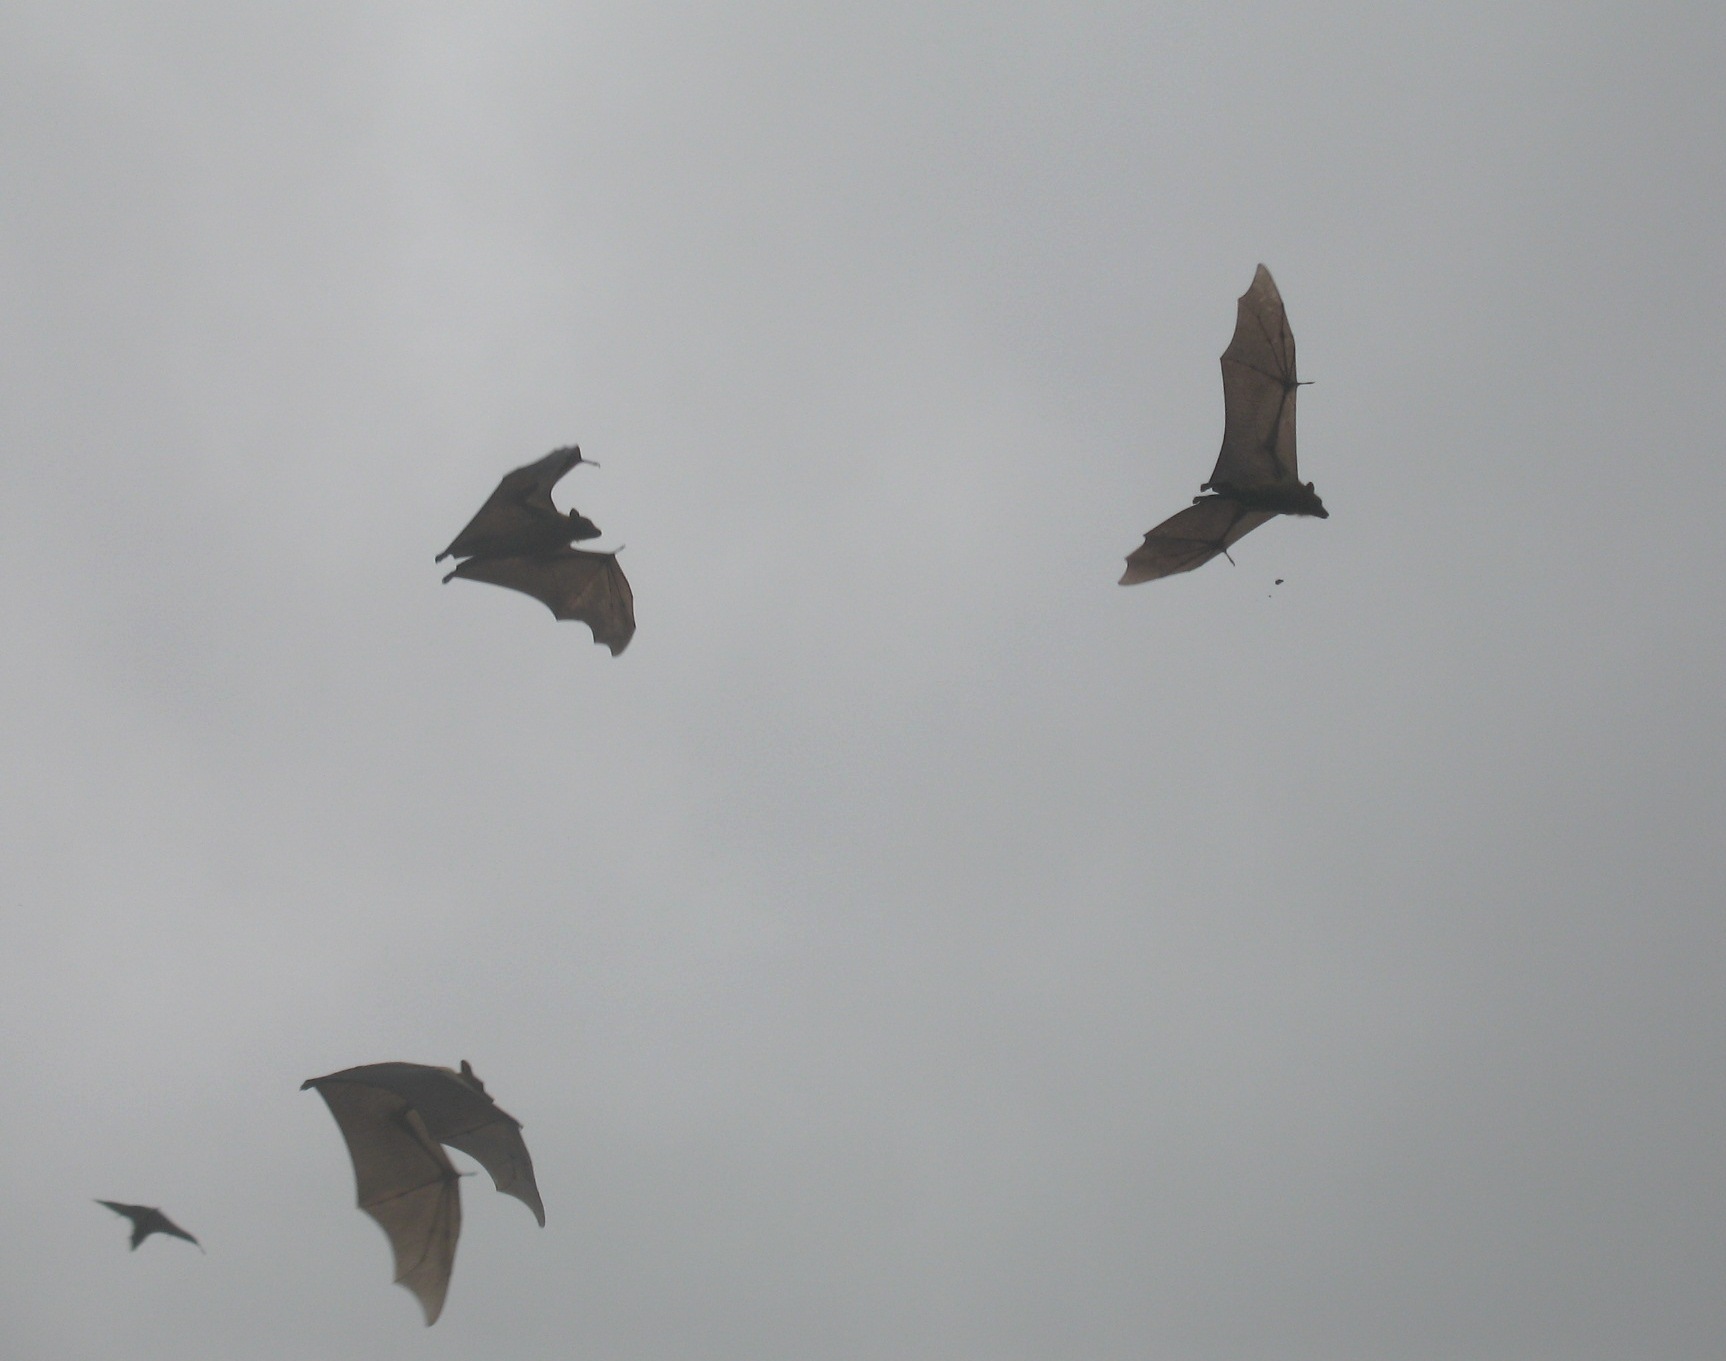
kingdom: Animalia
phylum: Chordata
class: Mammalia
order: Chiroptera
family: Pteropodidae
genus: Eidolon
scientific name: Eidolon helvum
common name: Straw-colored fruit bat
